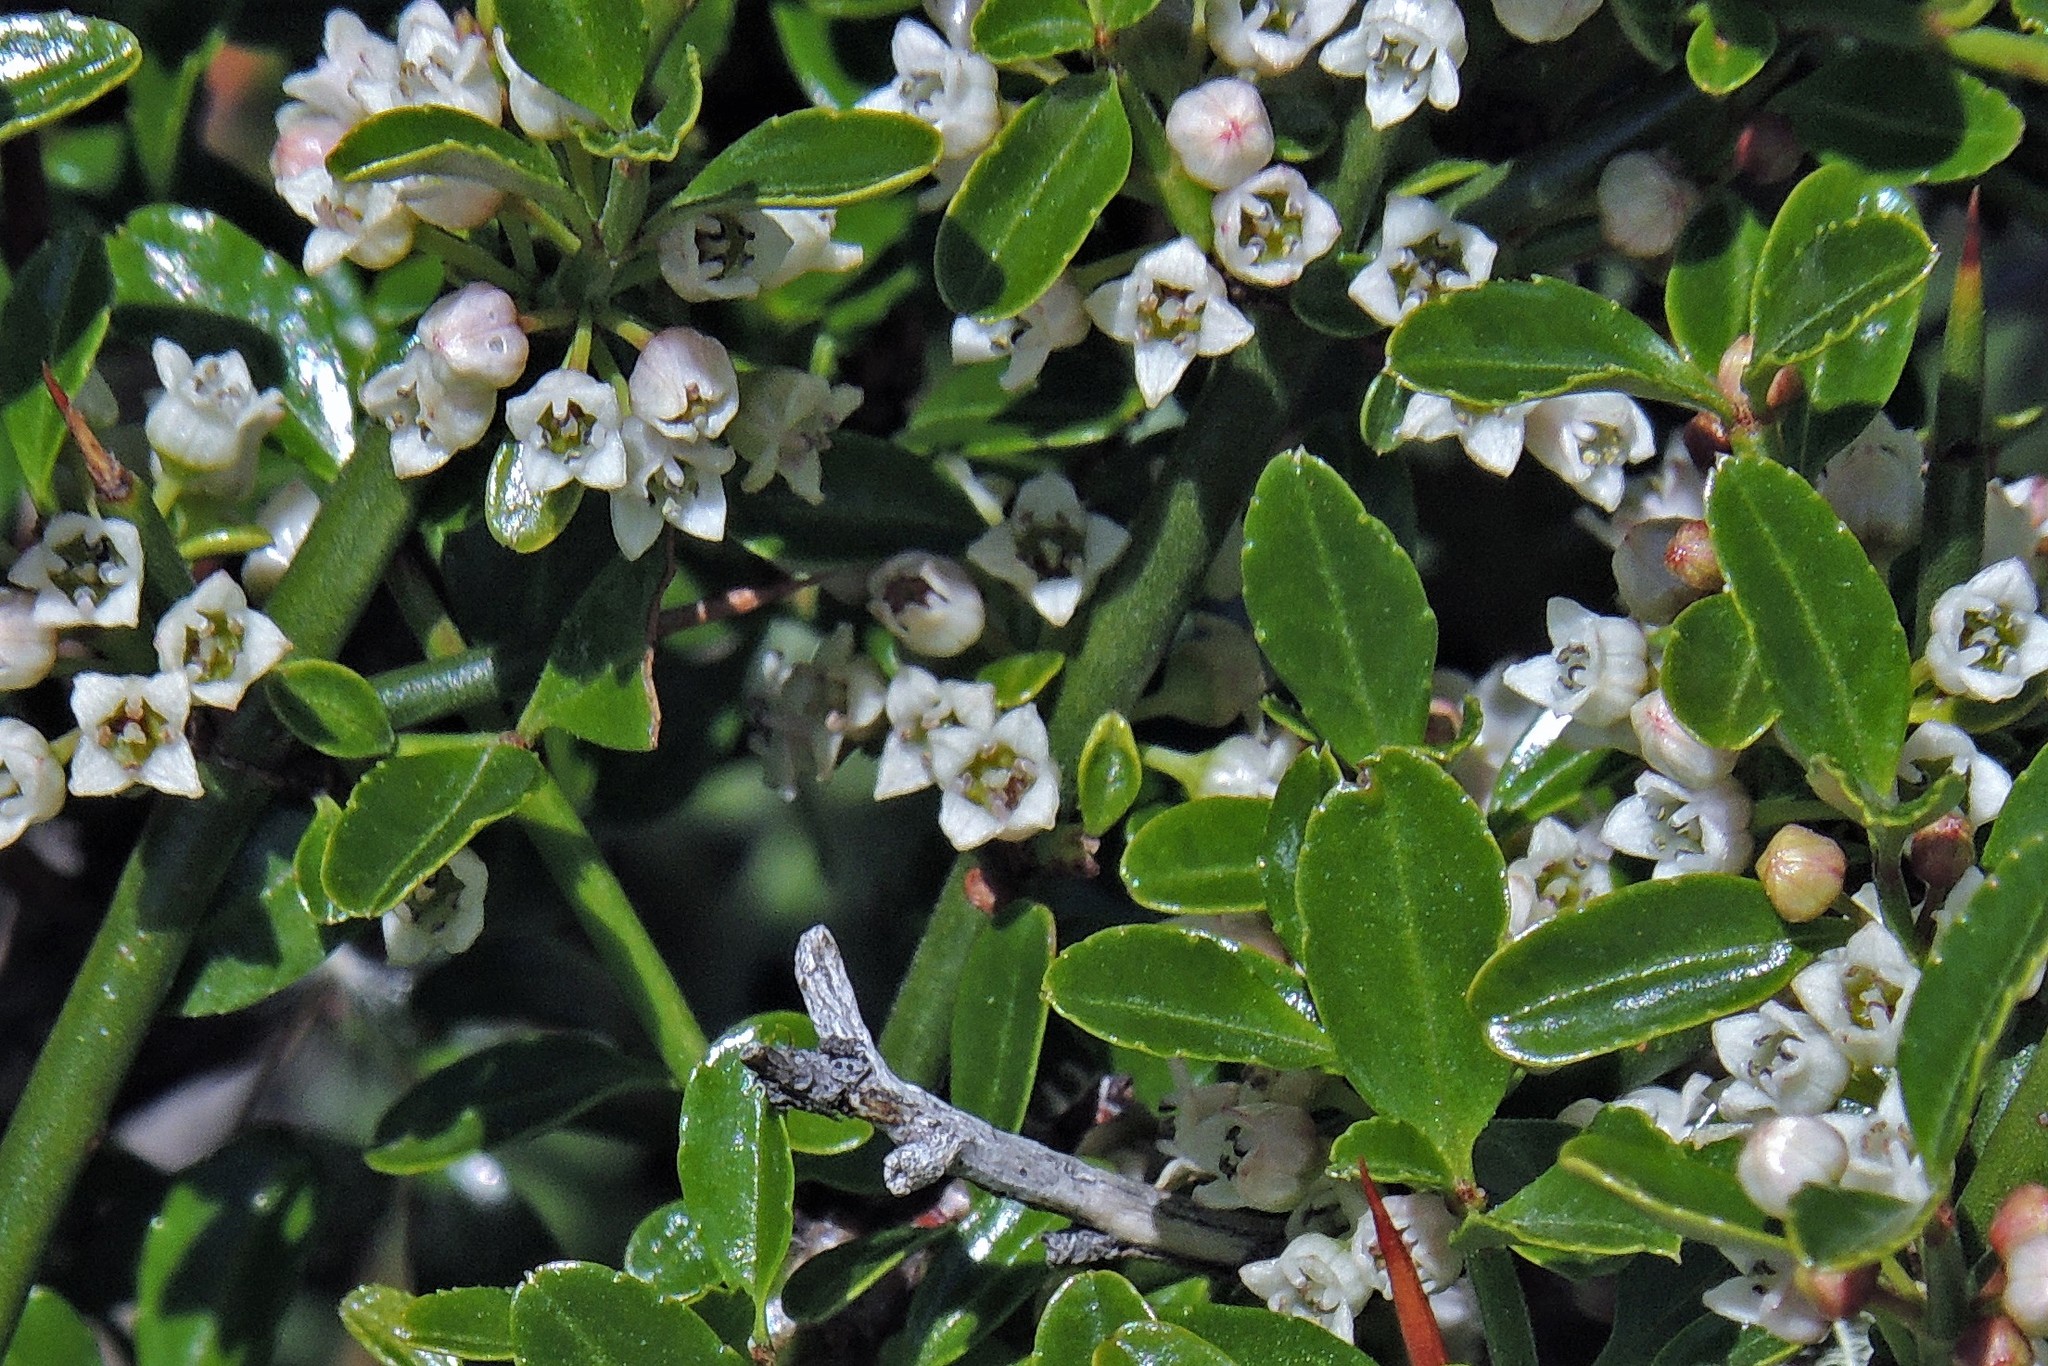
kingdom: Plantae
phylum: Tracheophyta
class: Magnoliopsida
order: Rosales
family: Rhamnaceae
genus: Discaria
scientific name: Discaria chacaye
